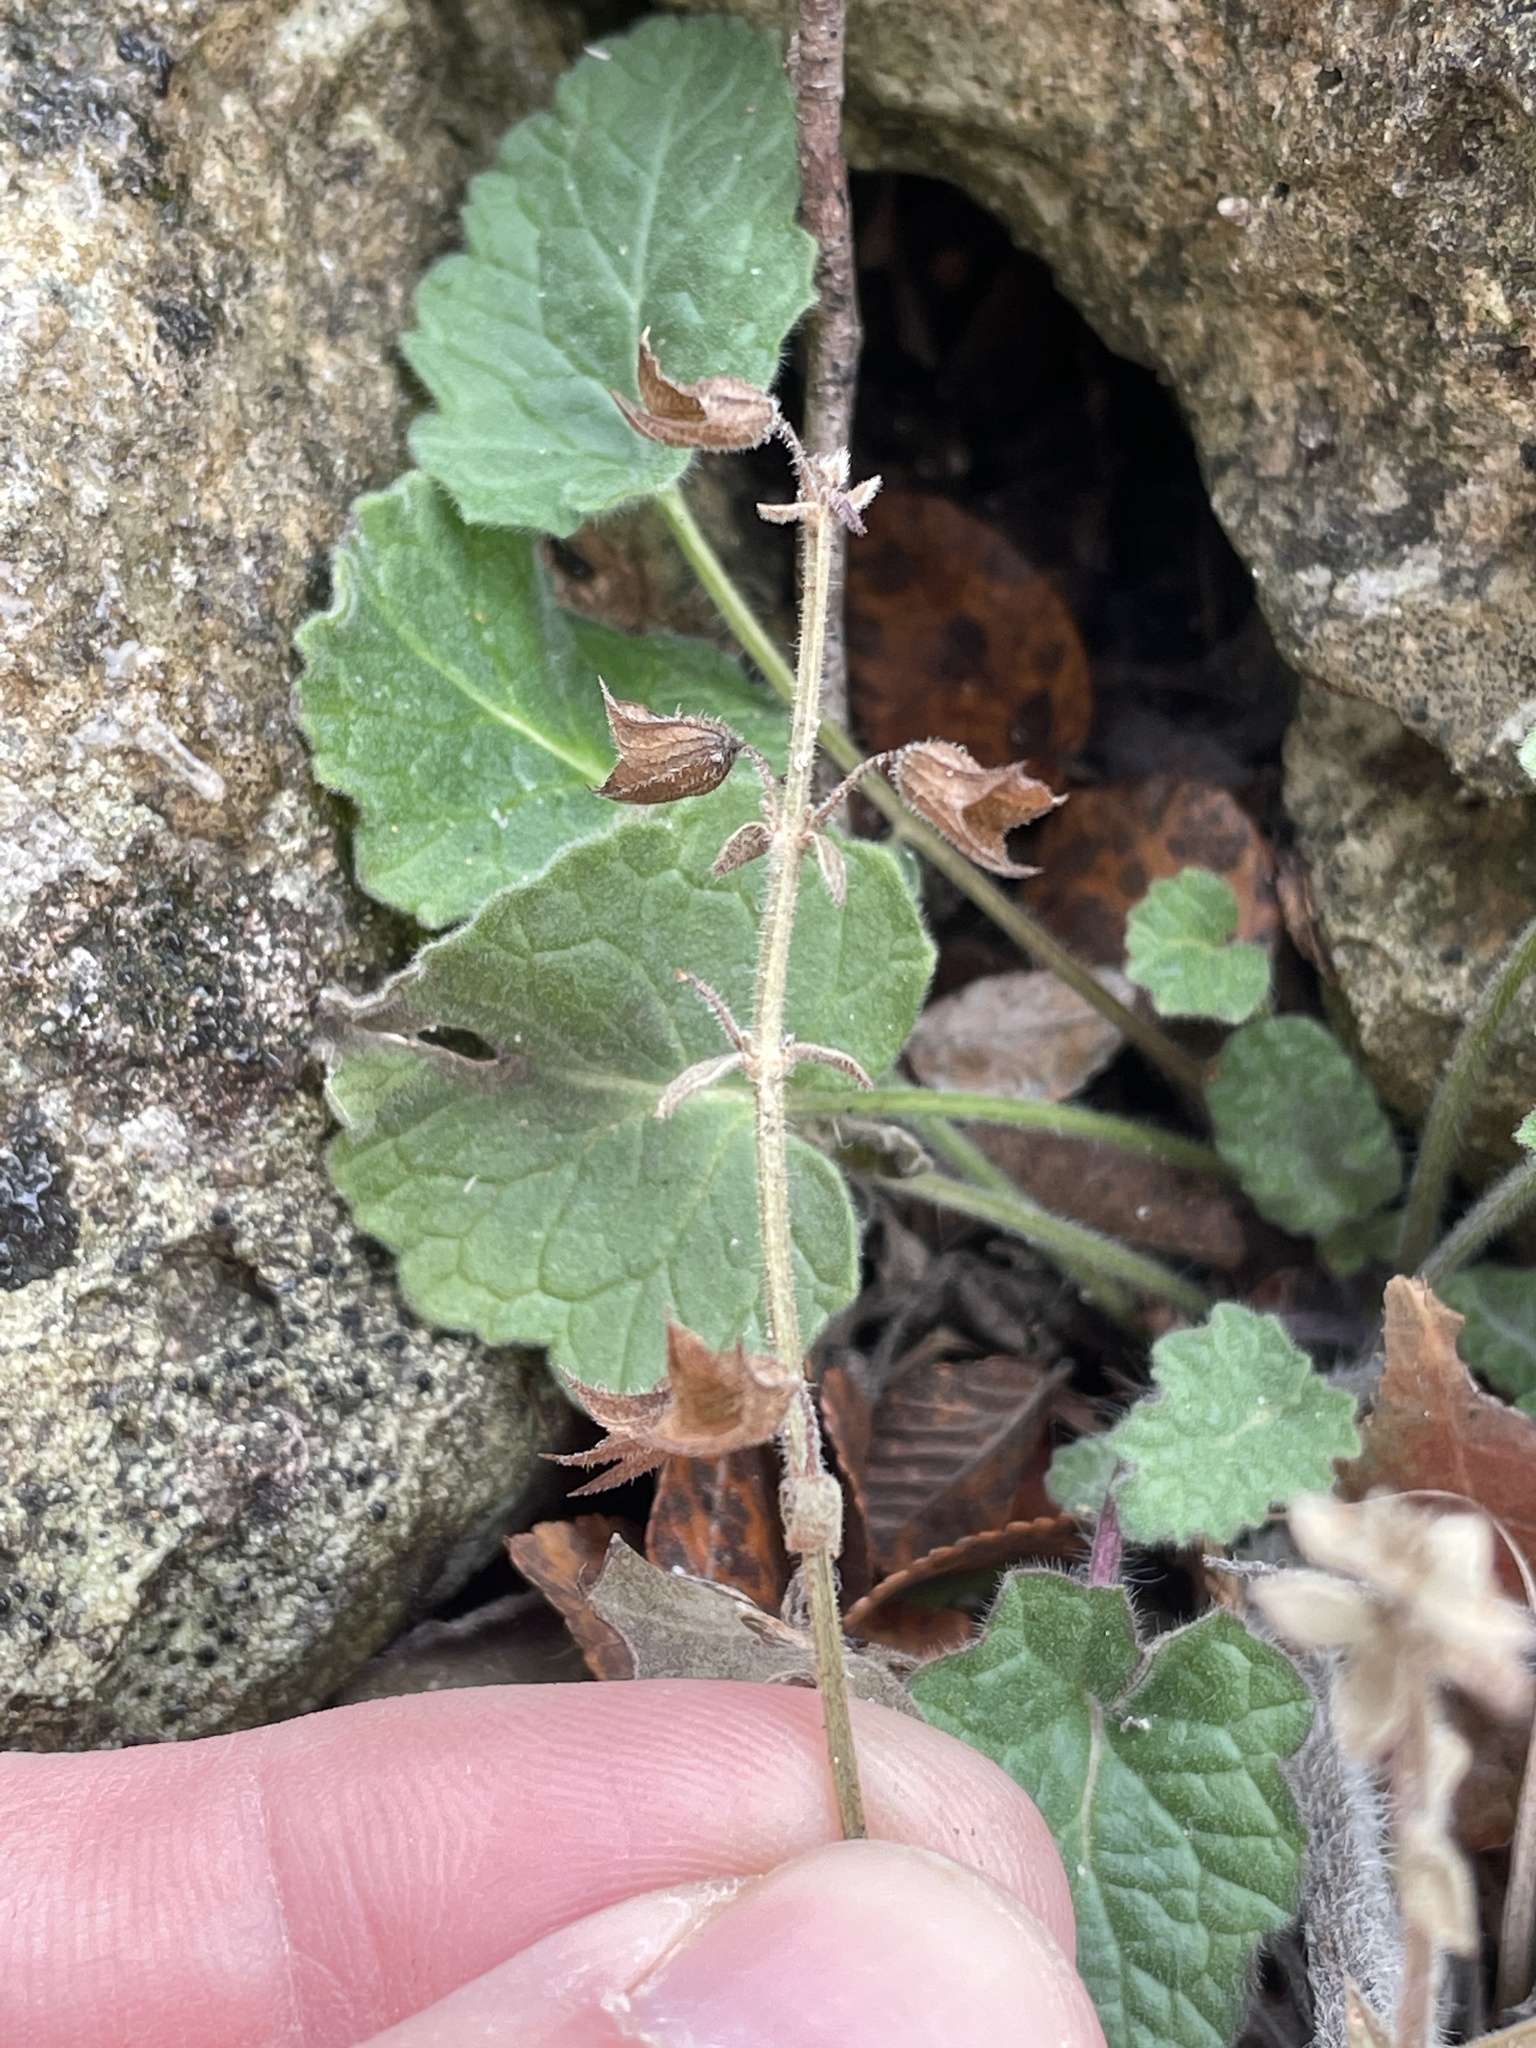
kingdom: Plantae
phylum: Tracheophyta
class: Magnoliopsida
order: Lamiales
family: Lamiaceae
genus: Salvia
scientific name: Salvia roemeriana
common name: Cedar sage
